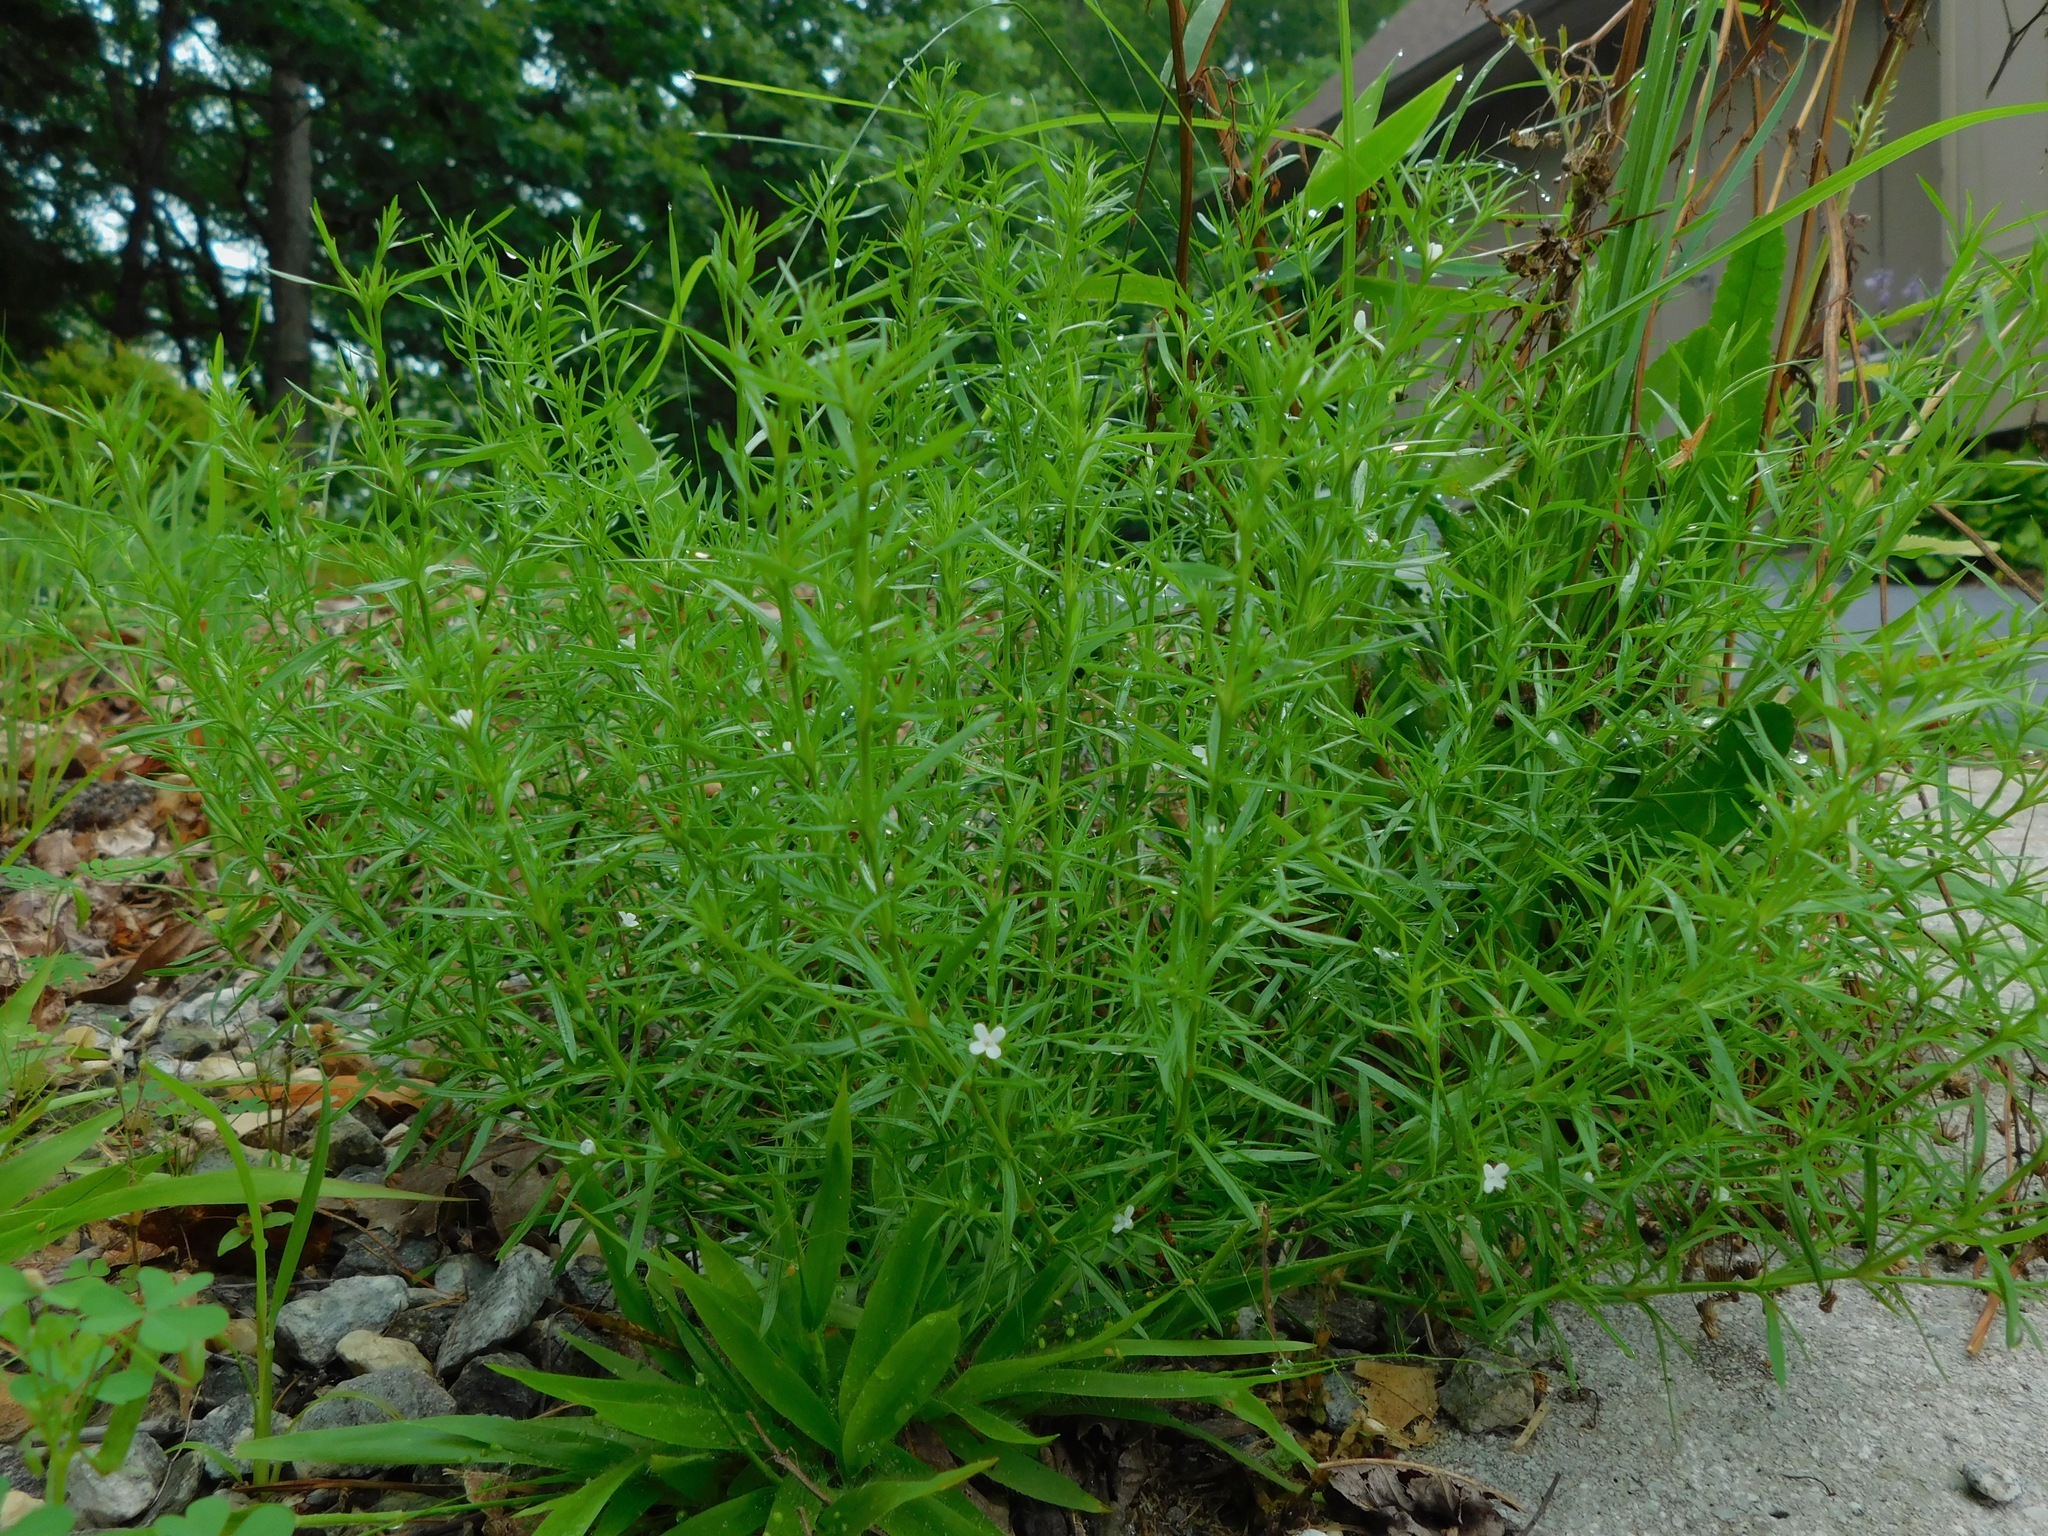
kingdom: Plantae
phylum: Tracheophyta
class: Magnoliopsida
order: Lamiales
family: Tetrachondraceae
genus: Polypremum
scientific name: Polypremum procumbens
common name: Juniper-leaf
